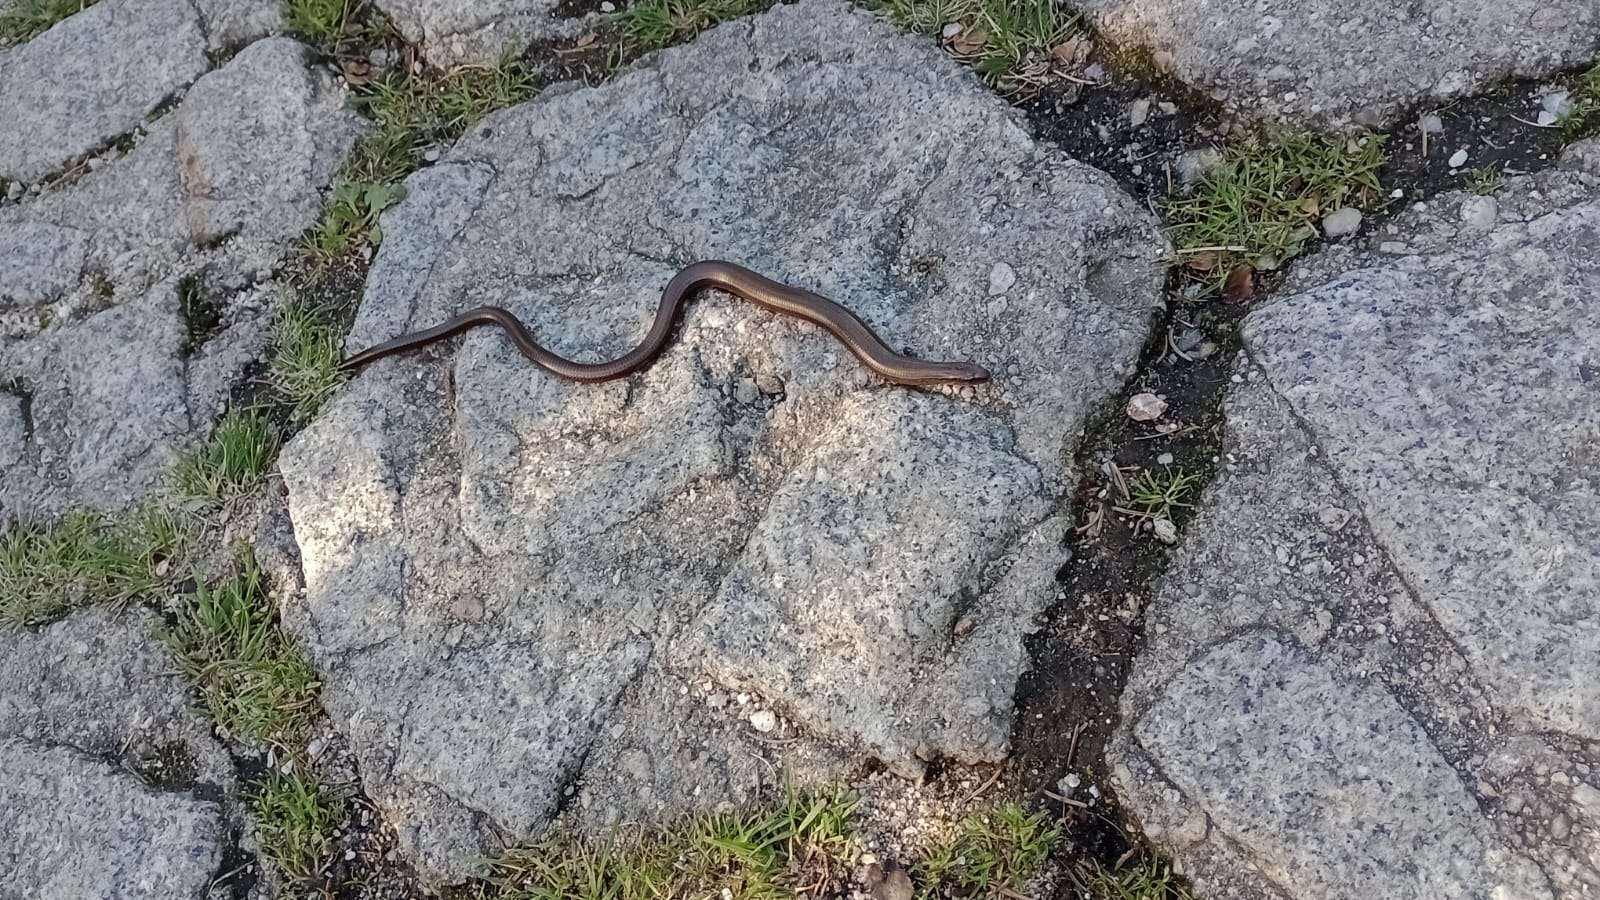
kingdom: Animalia
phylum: Chordata
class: Squamata
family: Anguidae
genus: Anguis
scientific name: Anguis fragilis
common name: Slow worm
